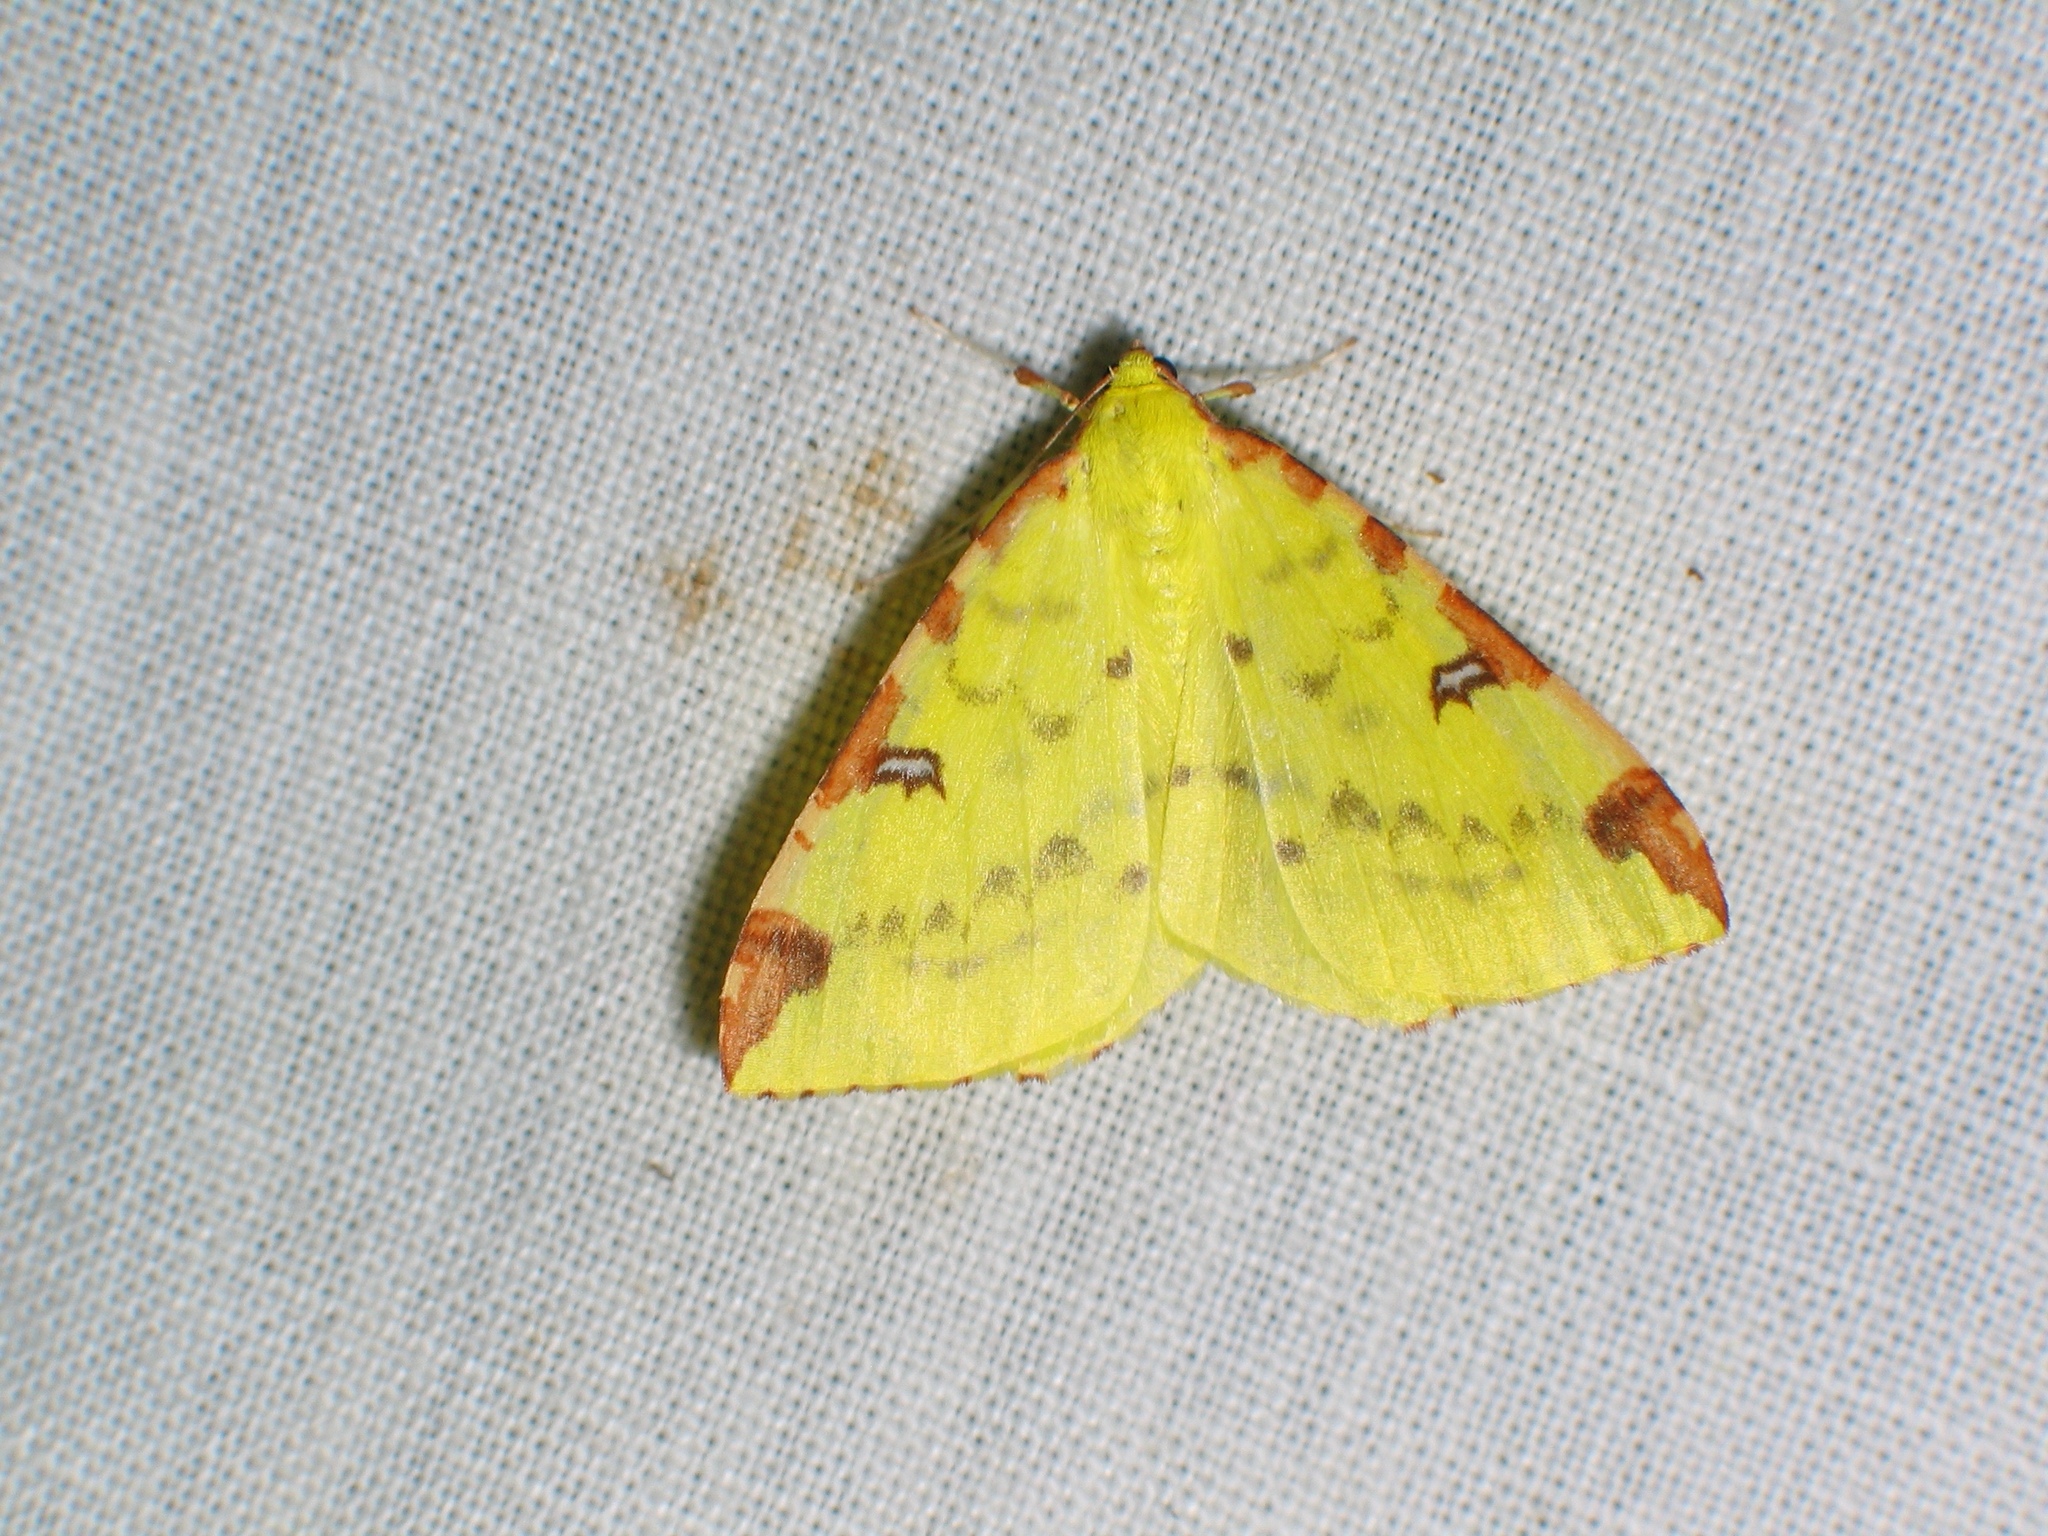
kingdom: Animalia
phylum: Arthropoda
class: Insecta
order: Lepidoptera
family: Geometridae
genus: Opisthograptis
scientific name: Opisthograptis luteolata
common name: Brimstone moth
